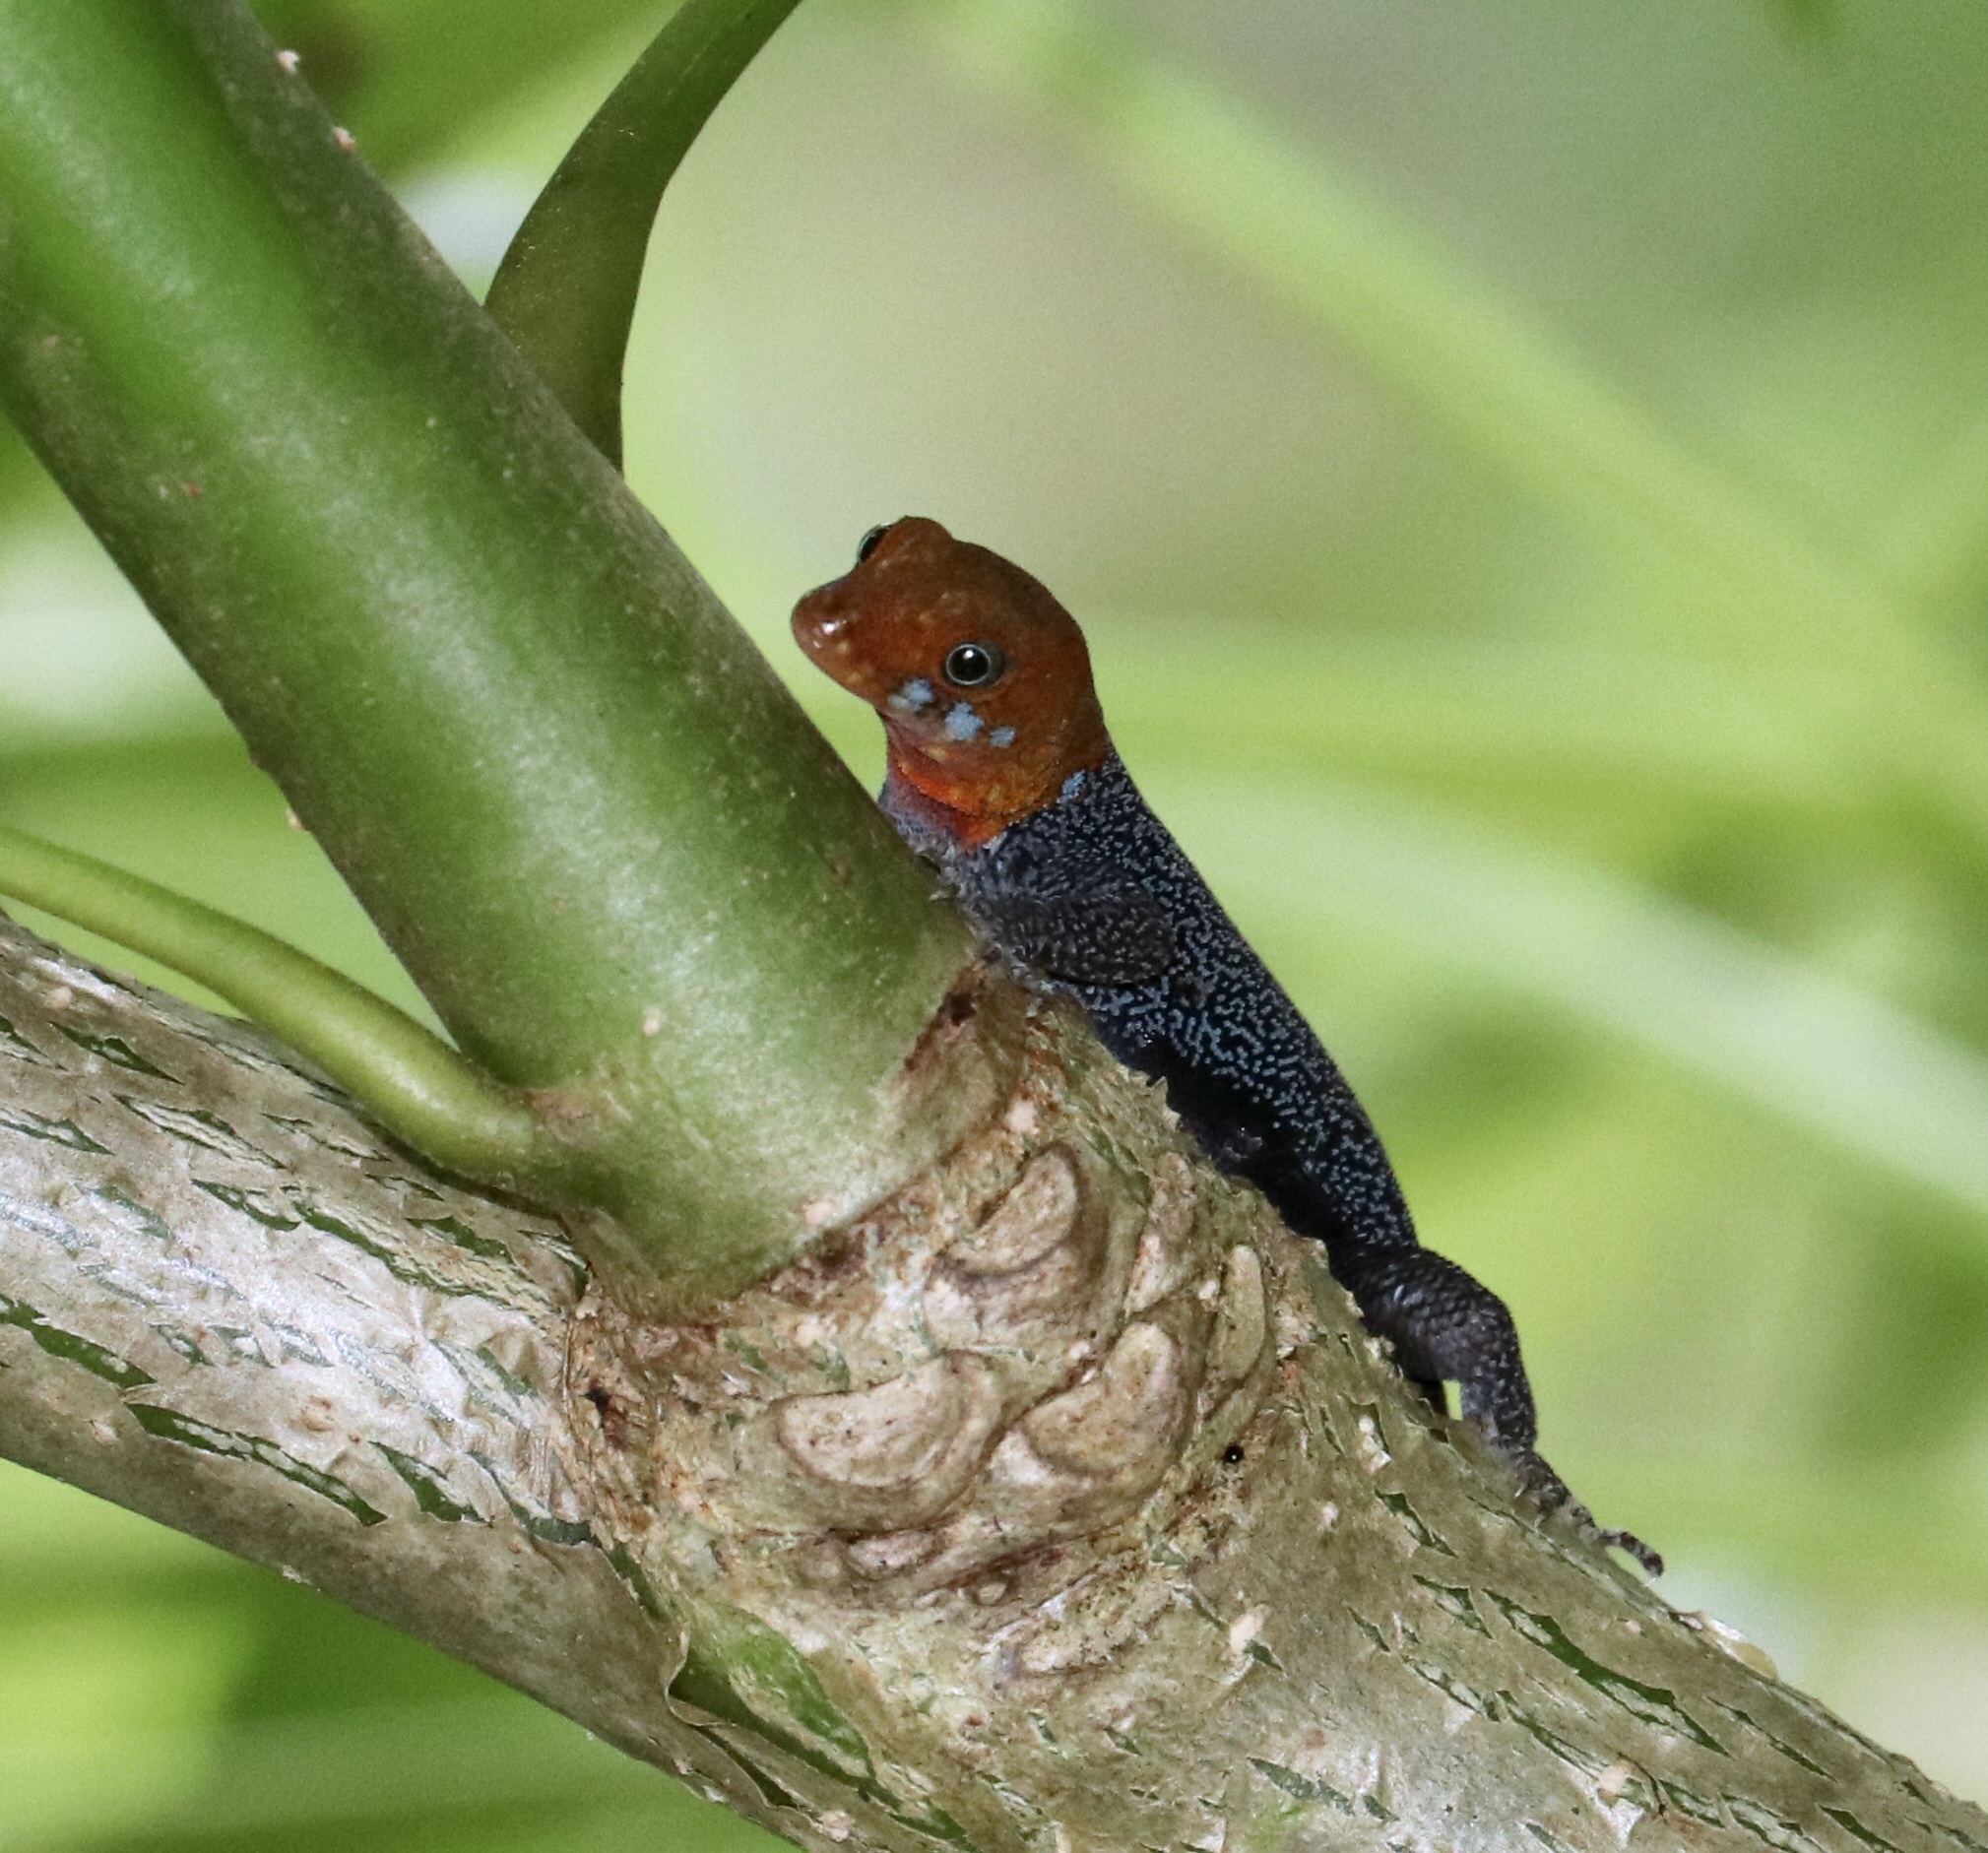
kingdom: Animalia
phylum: Chordata
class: Squamata
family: Sphaerodactylidae
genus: Gonatodes
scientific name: Gonatodes albogularis
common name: Yellow-headed gecko
